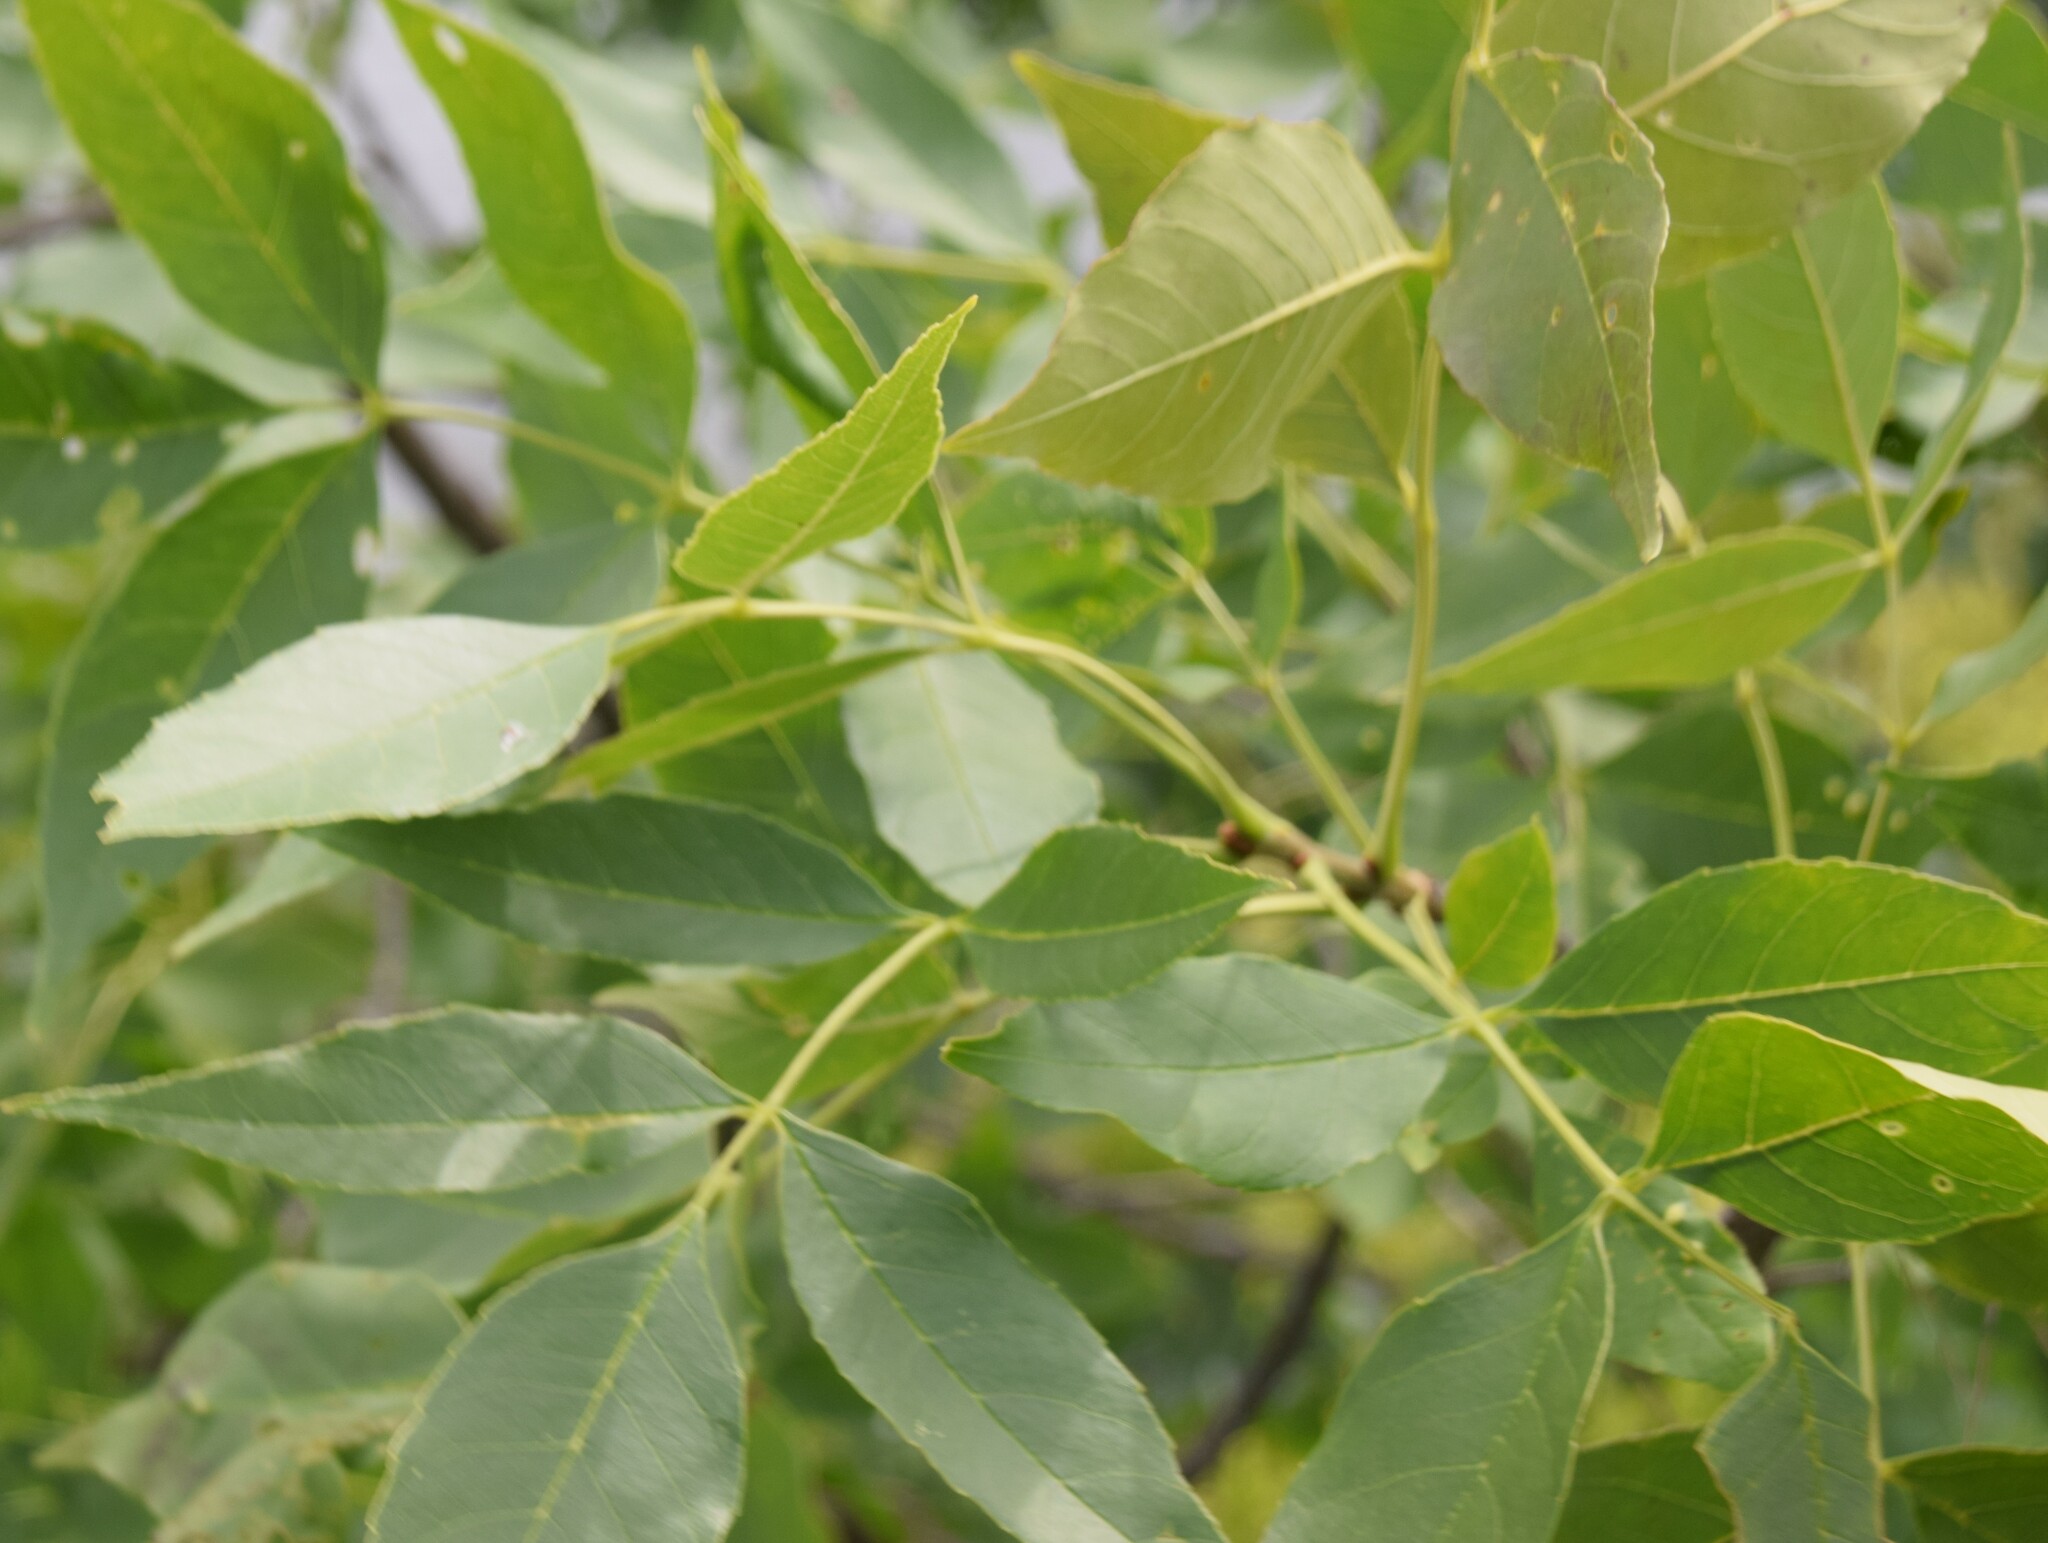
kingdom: Plantae
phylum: Tracheophyta
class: Magnoliopsida
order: Lamiales
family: Oleaceae
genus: Fraxinus
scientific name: Fraxinus pennsylvanica
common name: Green ash
